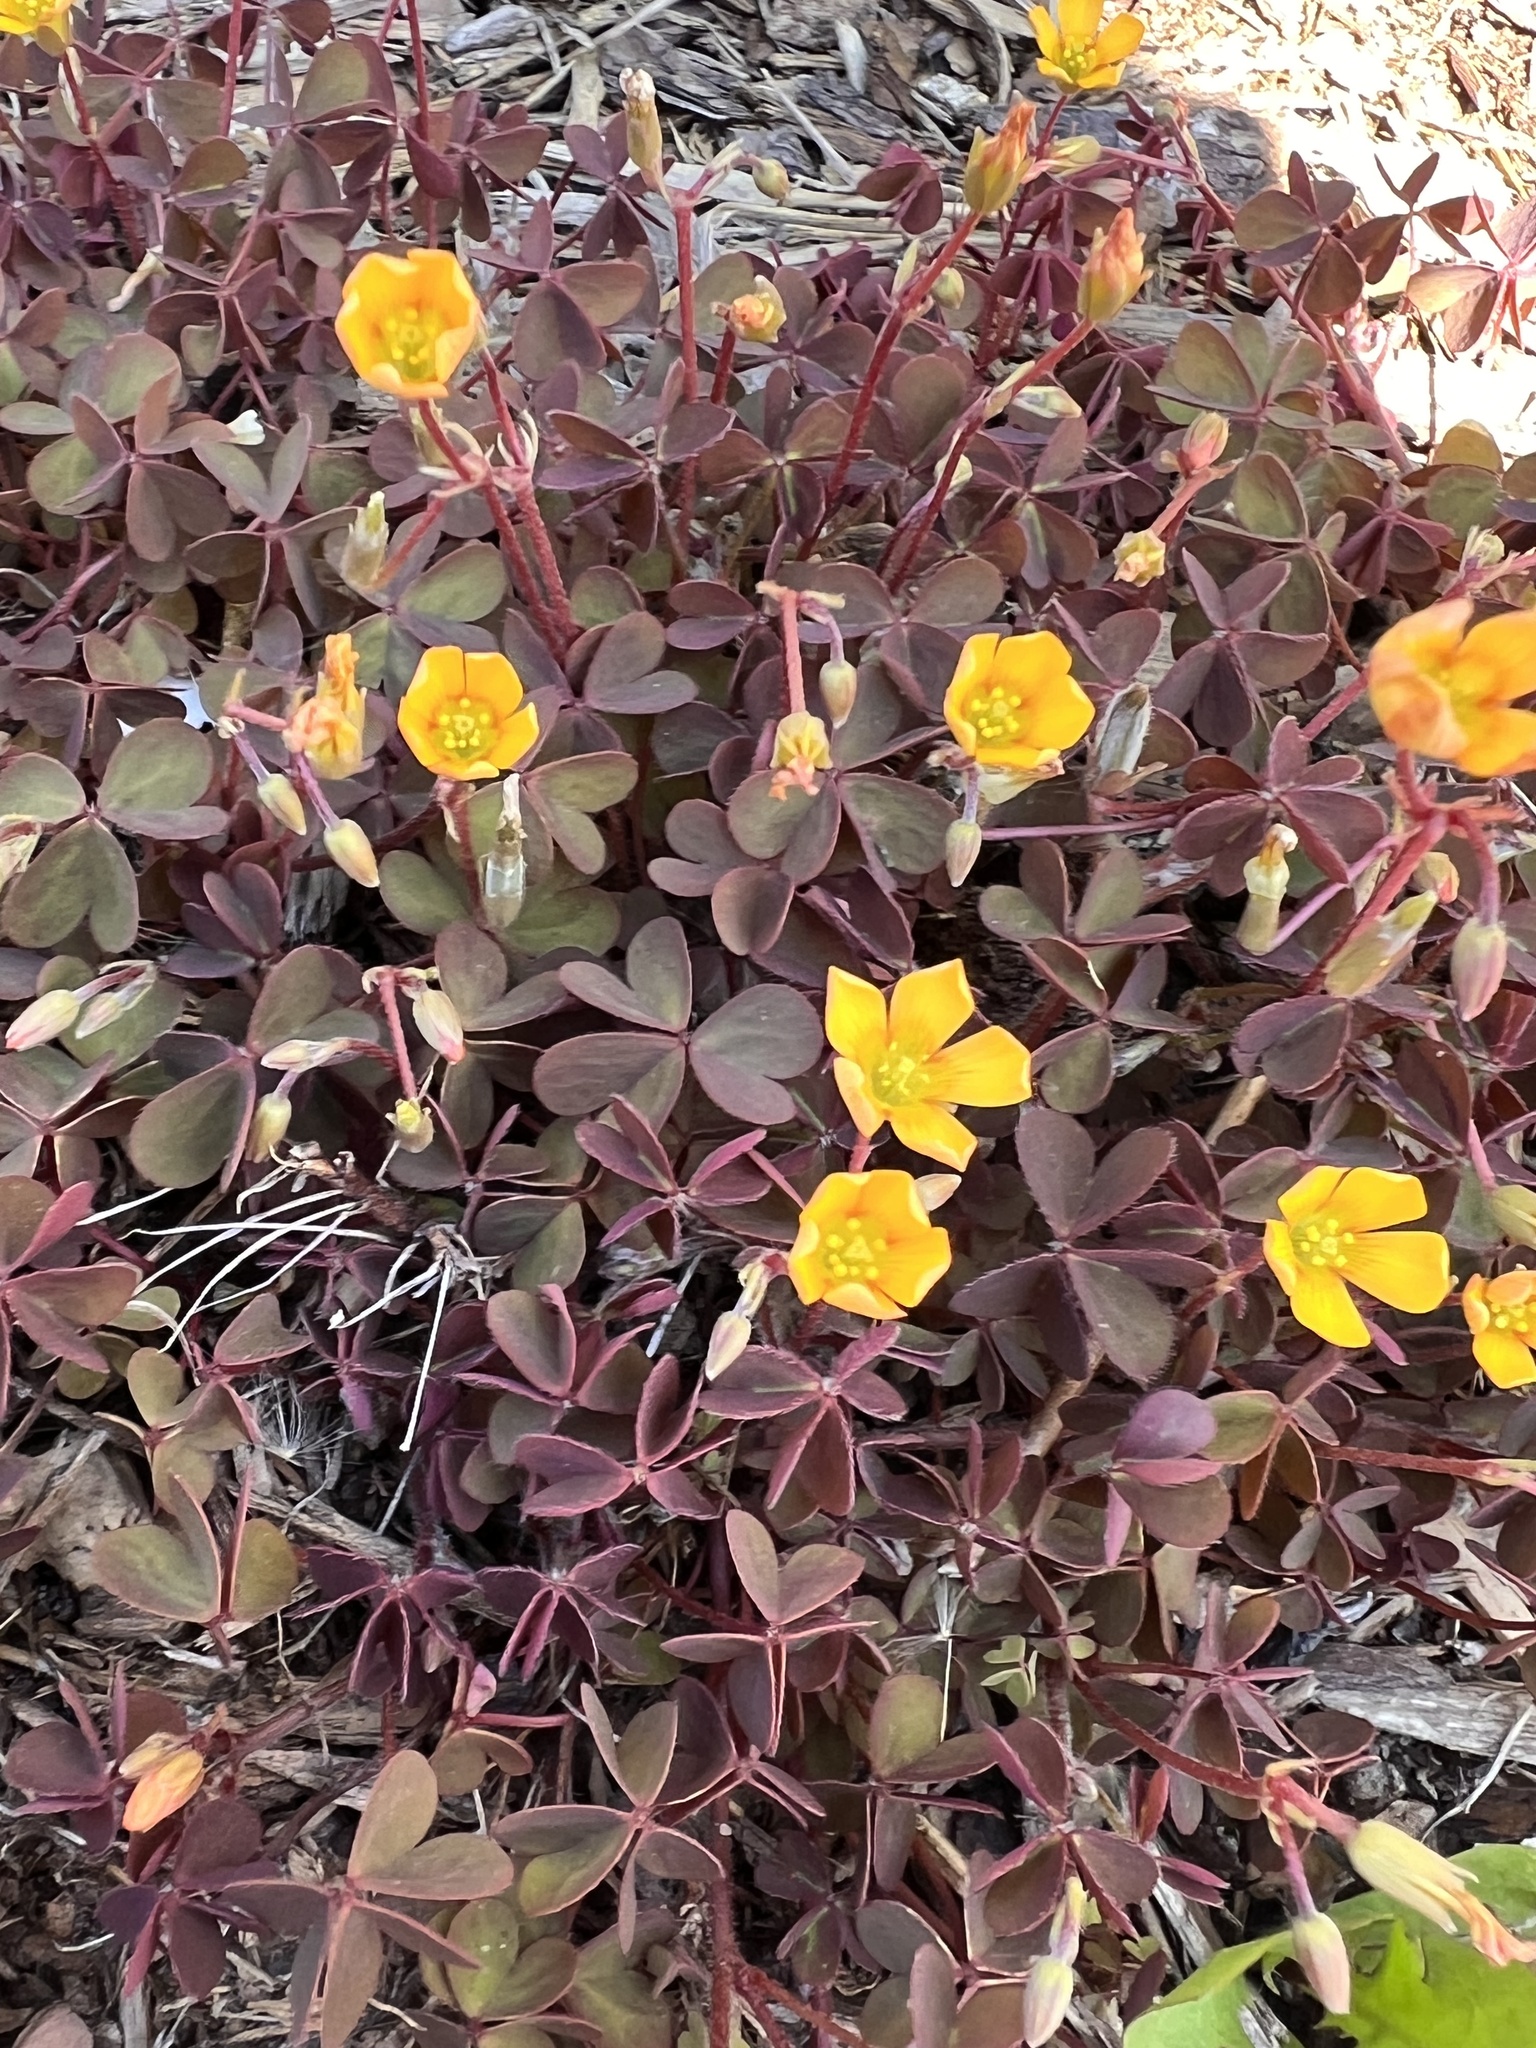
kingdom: Plantae
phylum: Tracheophyta
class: Magnoliopsida
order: Oxalidales
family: Oxalidaceae
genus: Oxalis
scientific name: Oxalis corniculata
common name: Procumbent yellow-sorrel
